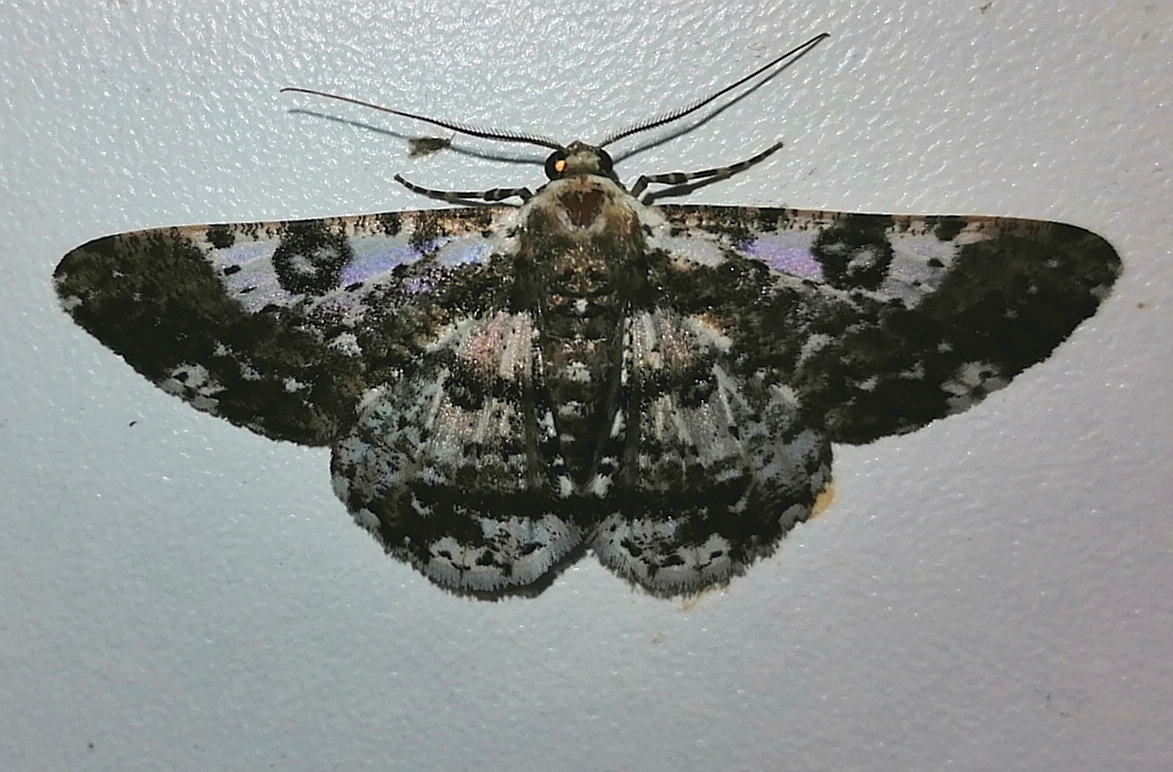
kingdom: Animalia
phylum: Arthropoda
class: Insecta
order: Lepidoptera
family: Geometridae
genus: Iridopsis
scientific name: Iridopsis validaria
